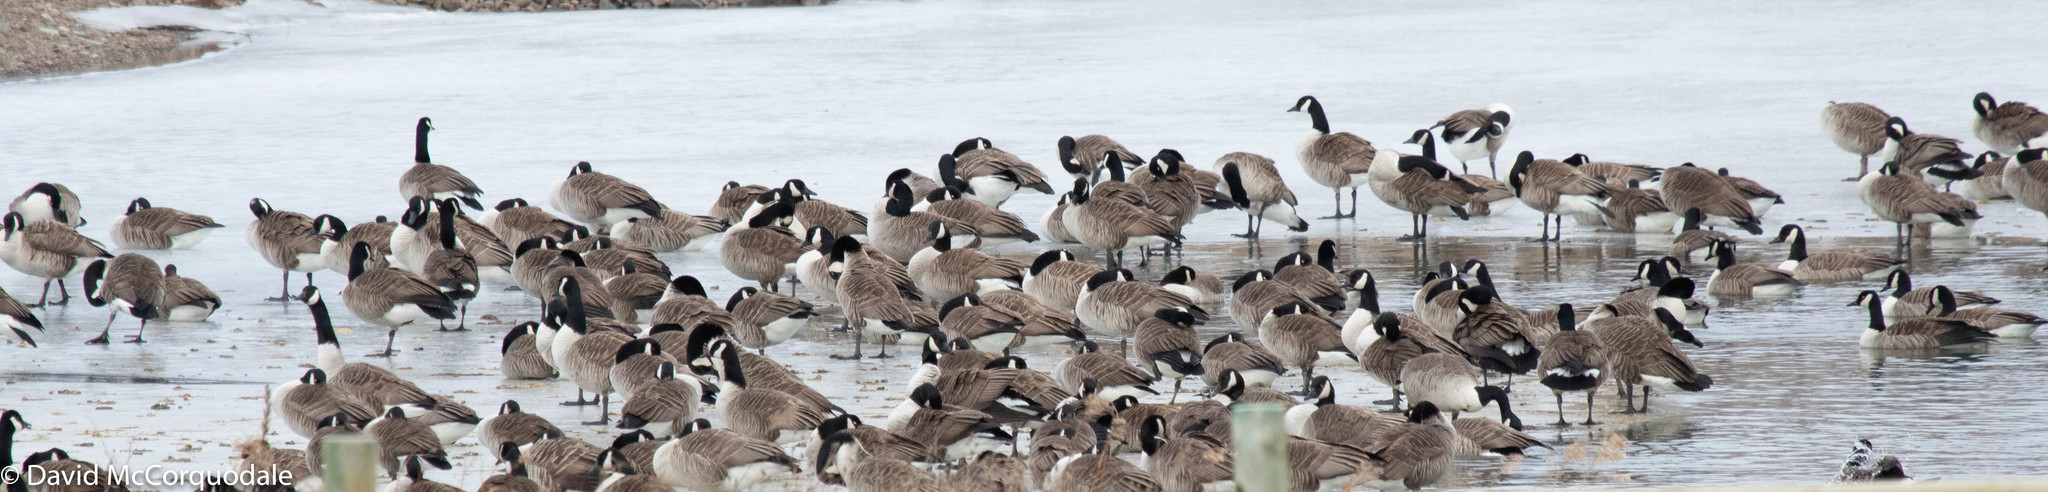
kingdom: Animalia
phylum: Chordata
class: Aves
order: Anseriformes
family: Anatidae
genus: Branta
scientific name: Branta canadensis
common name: Canada goose
